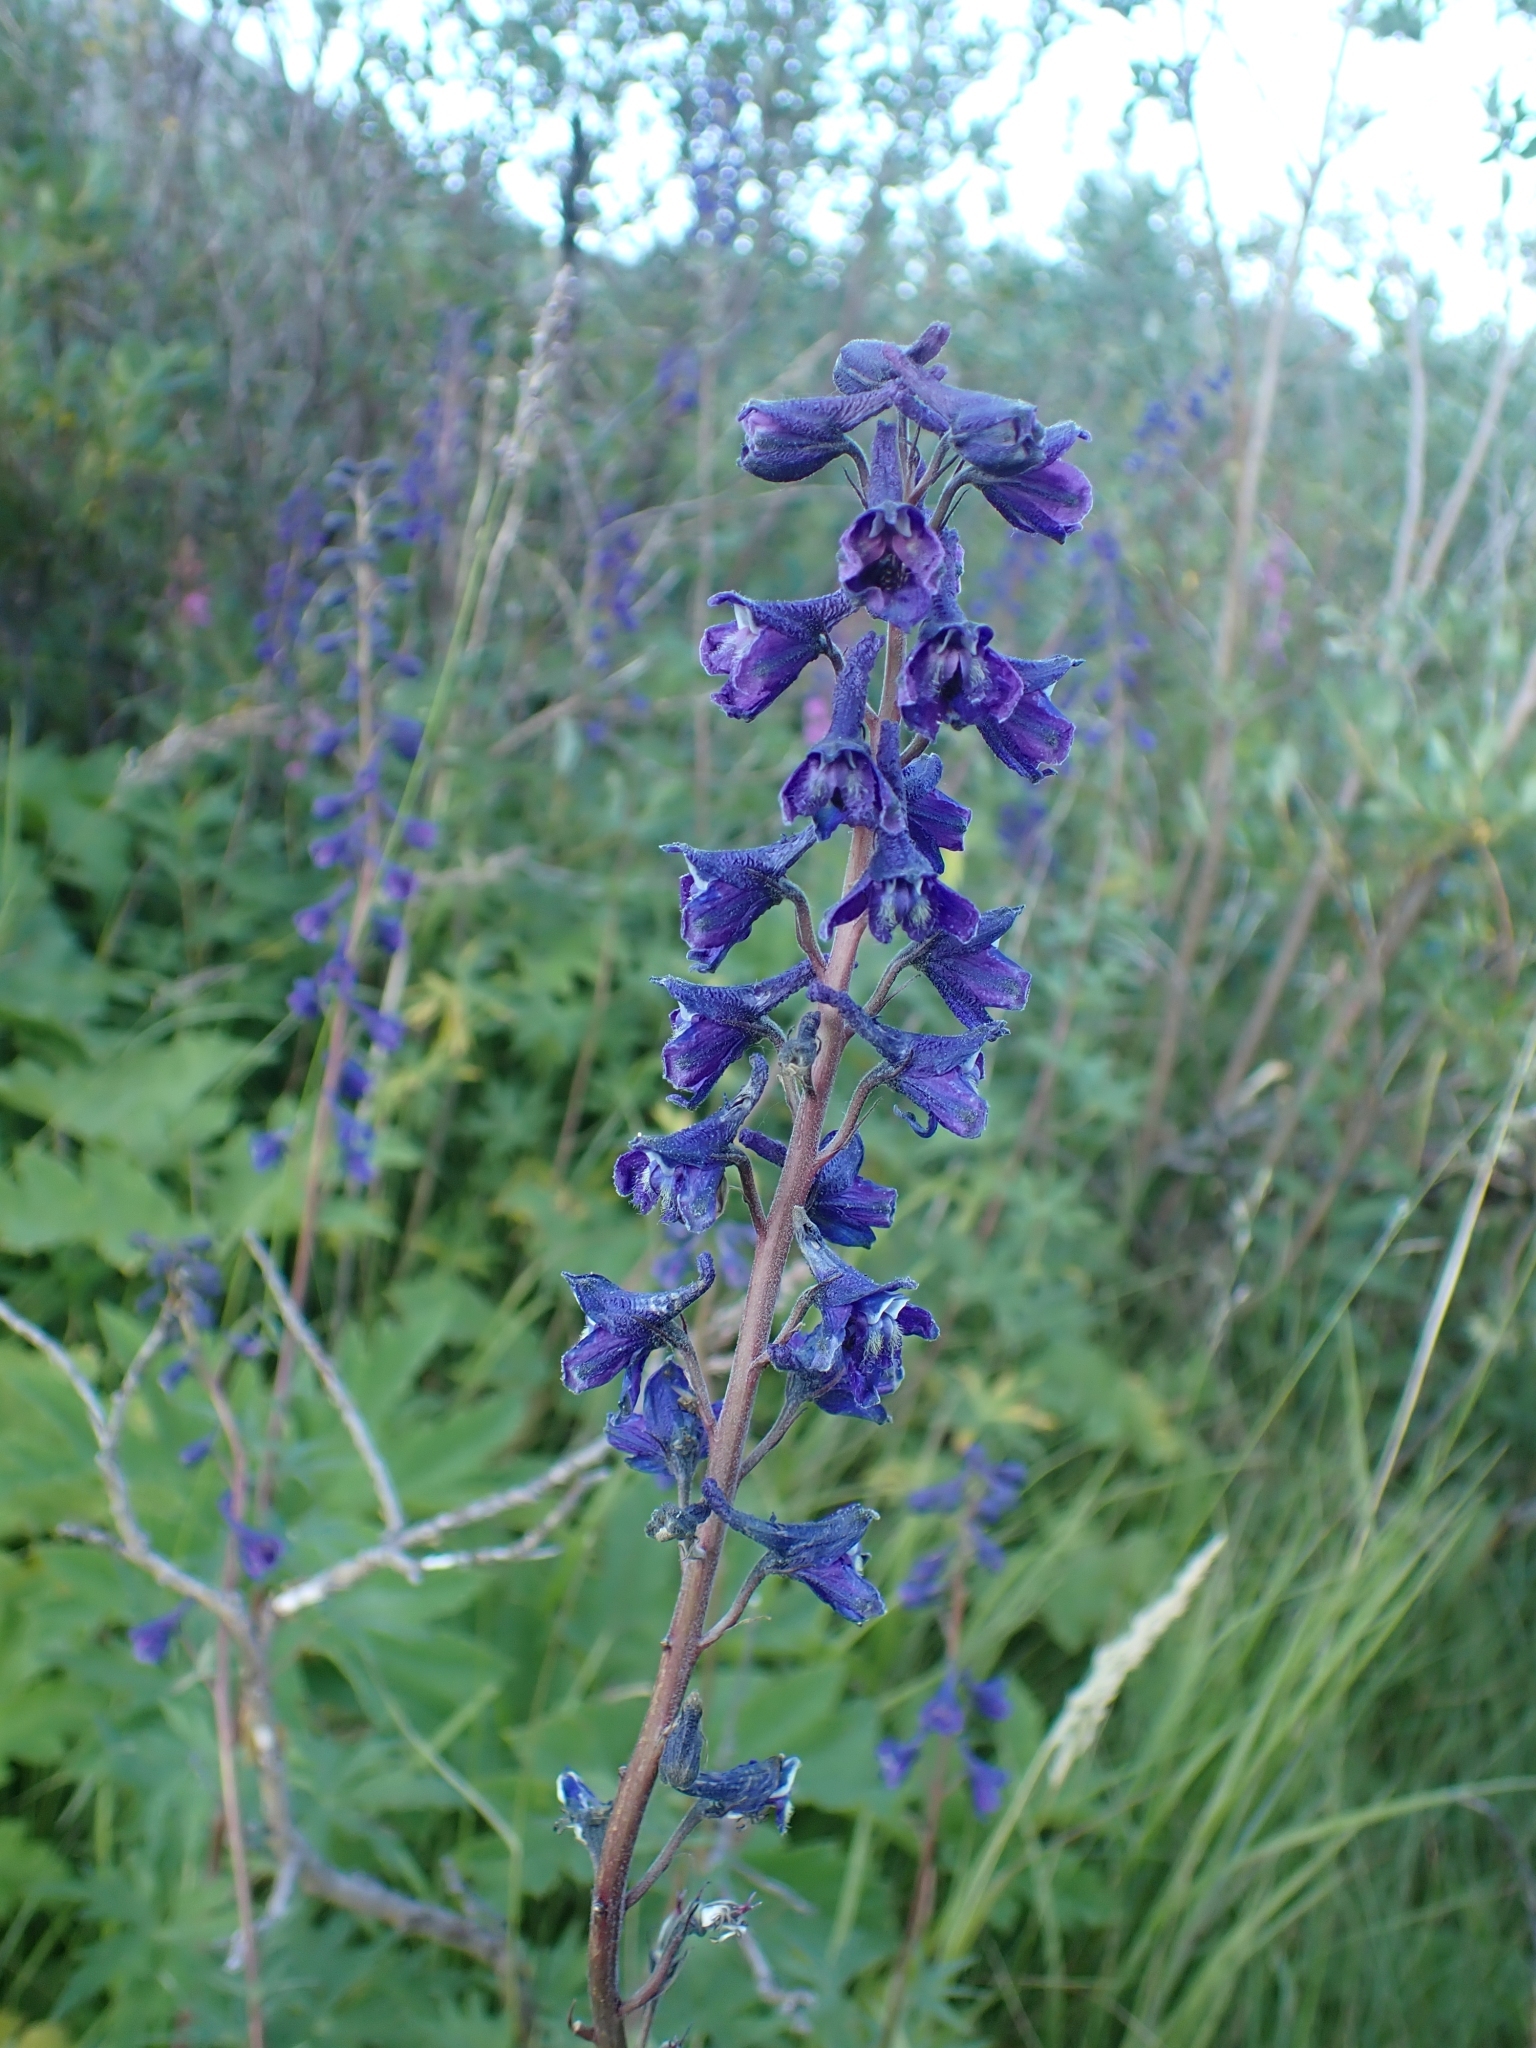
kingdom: Plantae
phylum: Tracheophyta
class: Magnoliopsida
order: Ranunculales
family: Ranunculaceae
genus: Delphinium
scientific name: Delphinium glaucum
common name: Brown's larkspur
